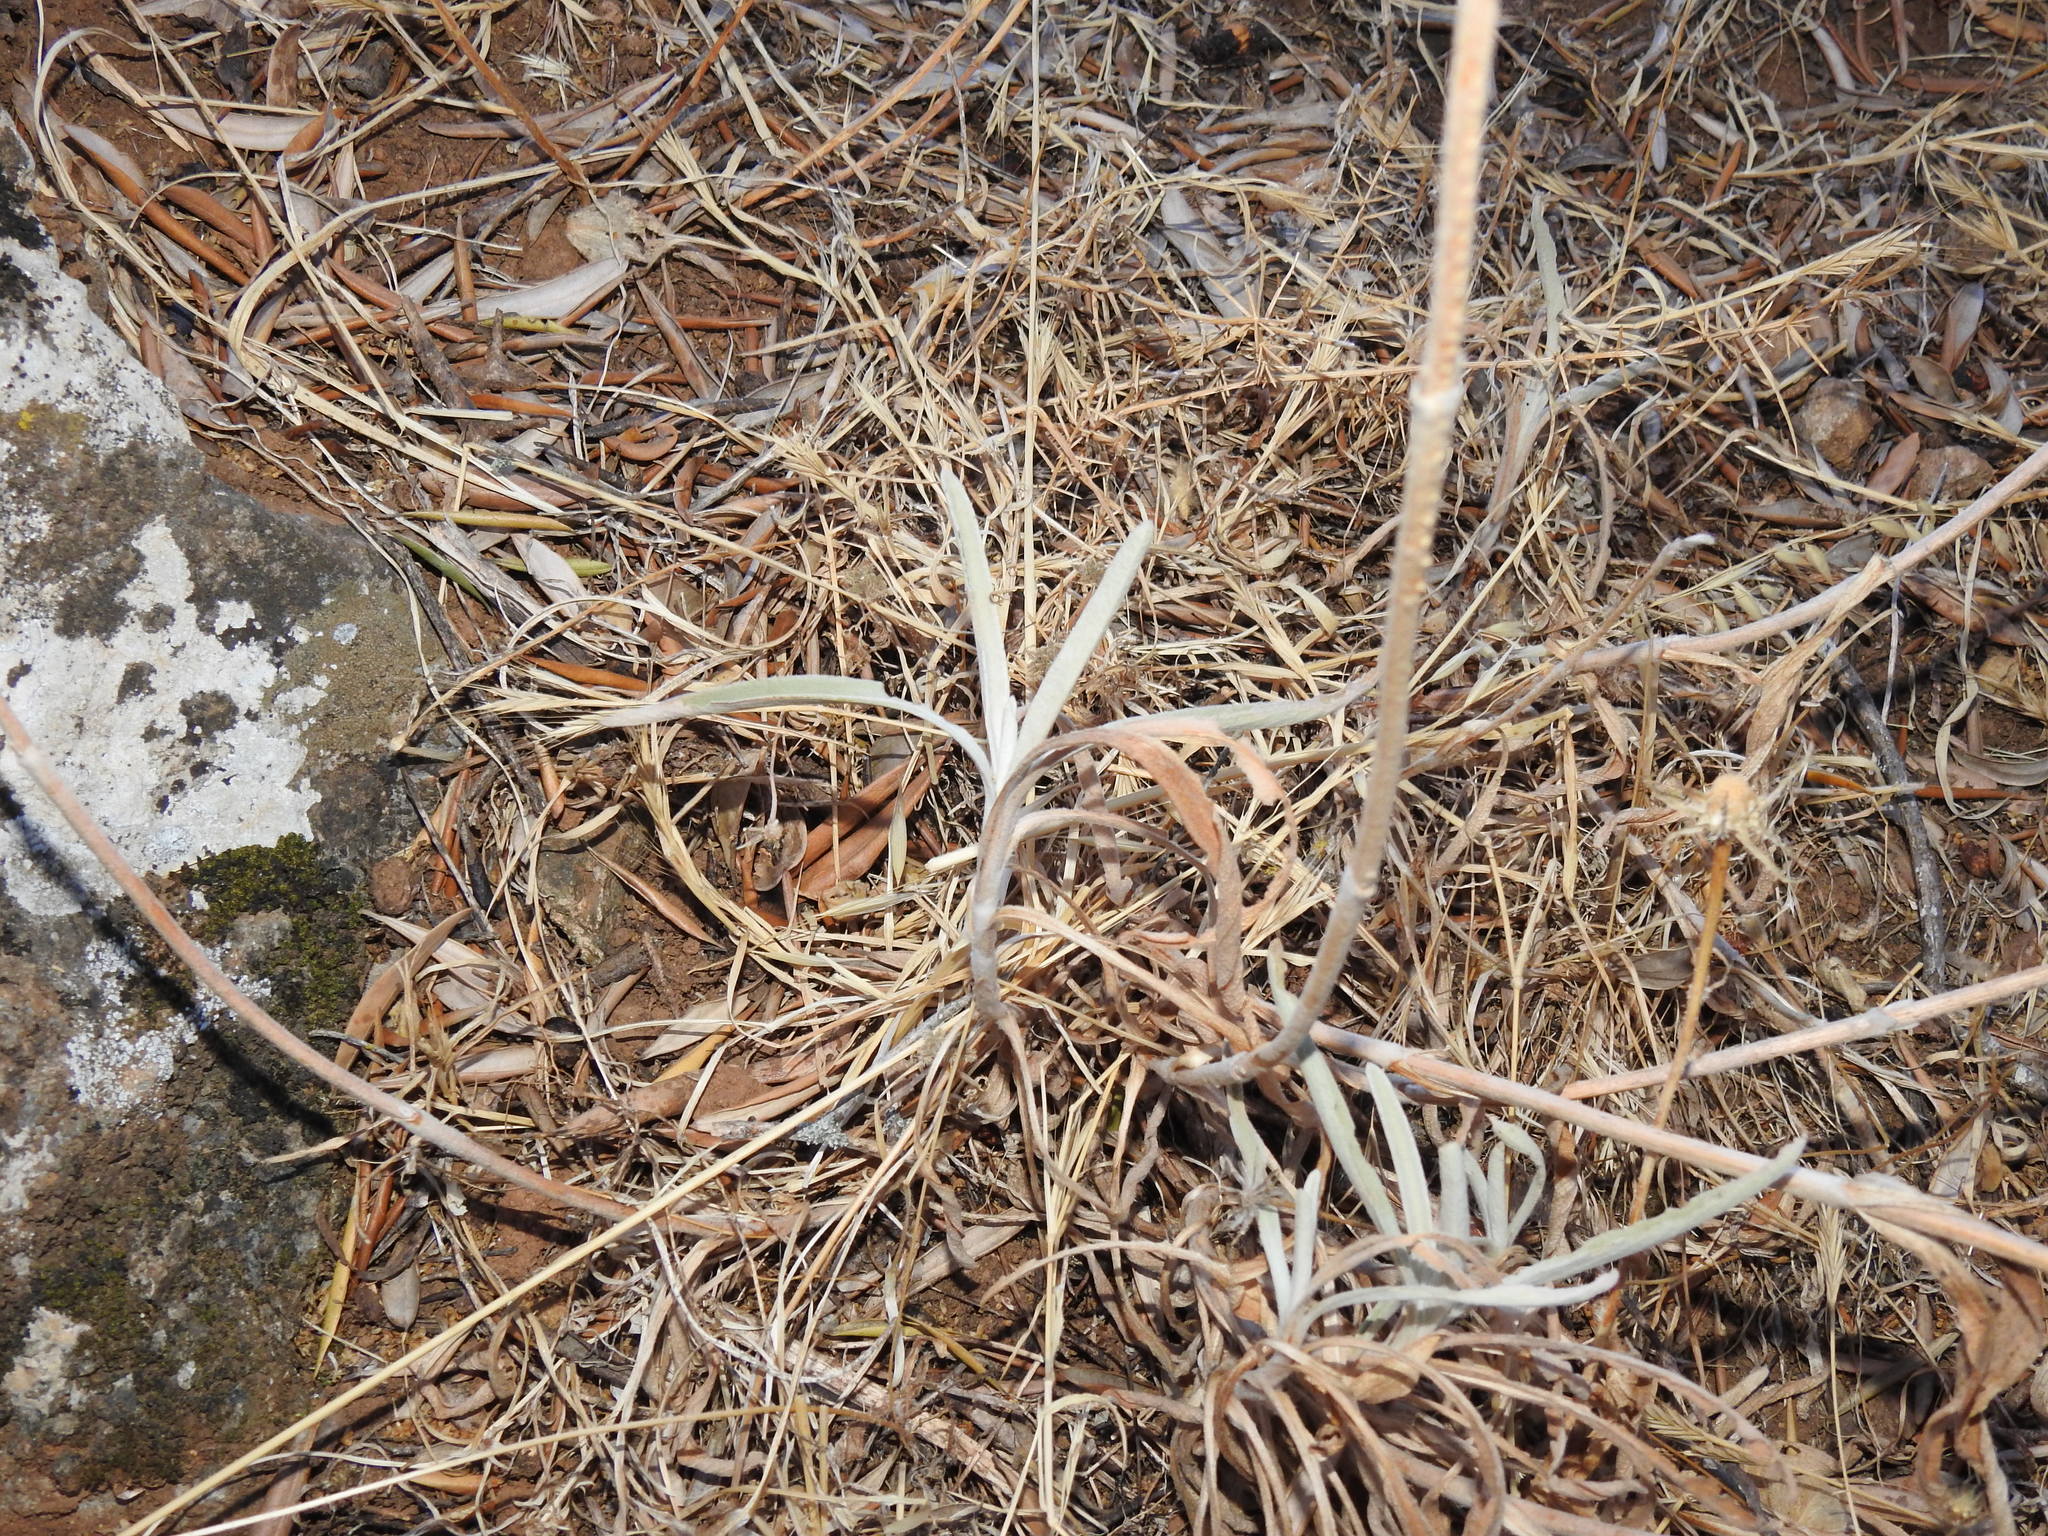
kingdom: Plantae
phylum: Tracheophyta
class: Magnoliopsida
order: Lamiales
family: Lamiaceae
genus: Phlomis
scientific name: Phlomis lychnitis
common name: Lampwickplant
